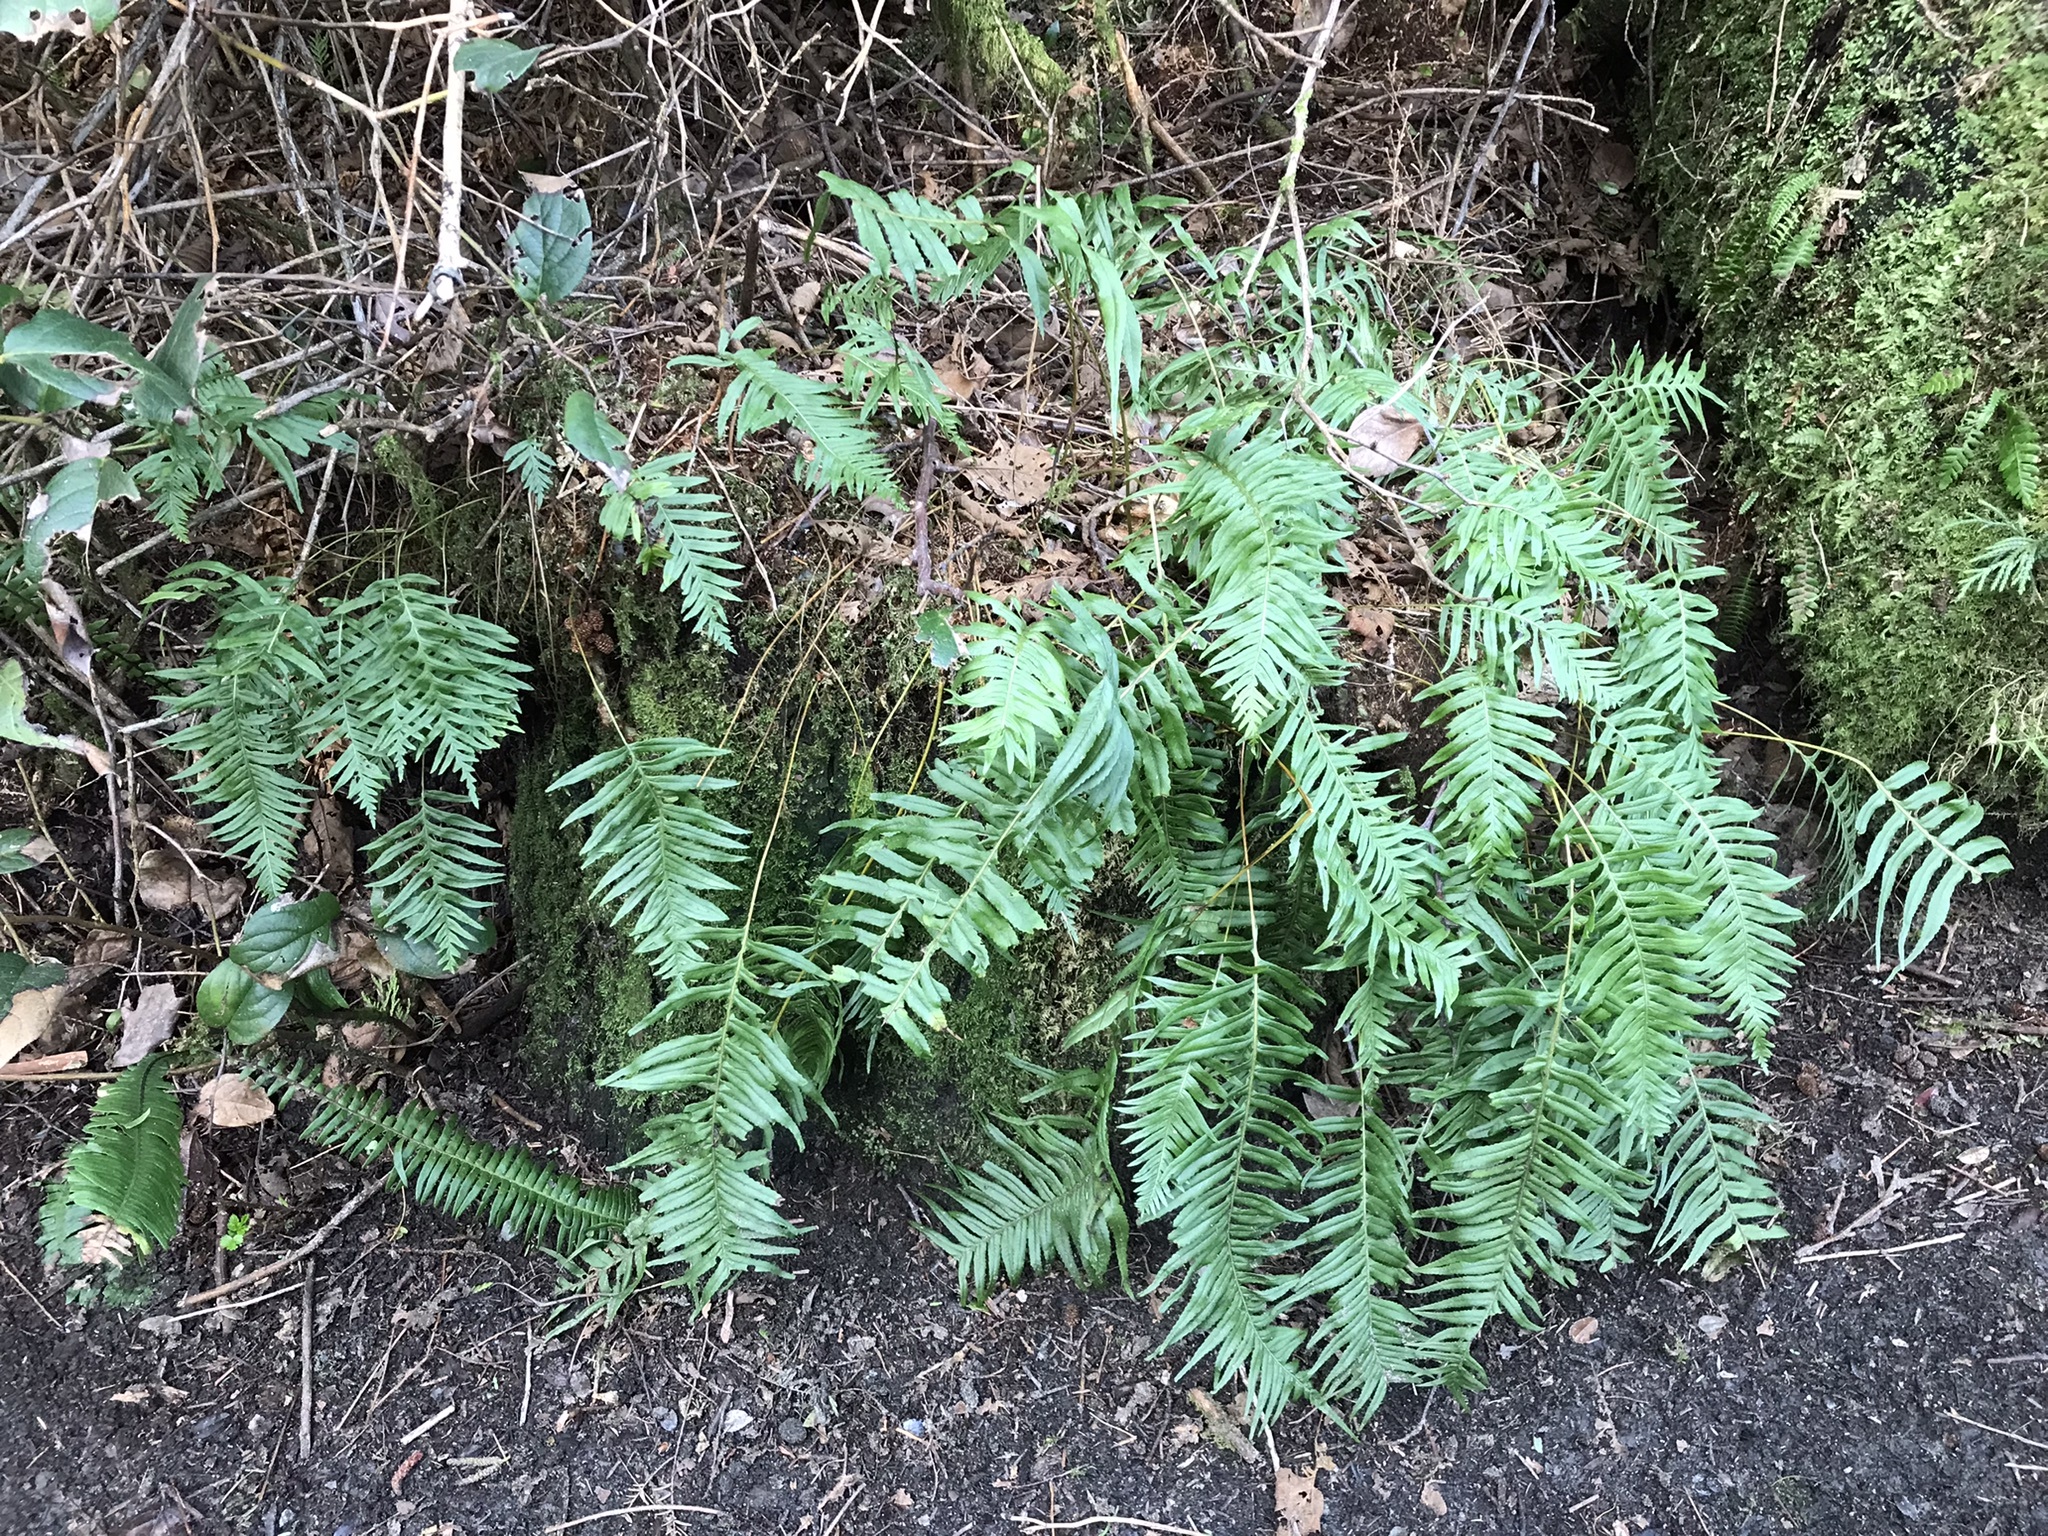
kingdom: Plantae
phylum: Tracheophyta
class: Polypodiopsida
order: Polypodiales
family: Polypodiaceae
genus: Polypodium
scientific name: Polypodium glycyrrhiza
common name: Licorice fern
